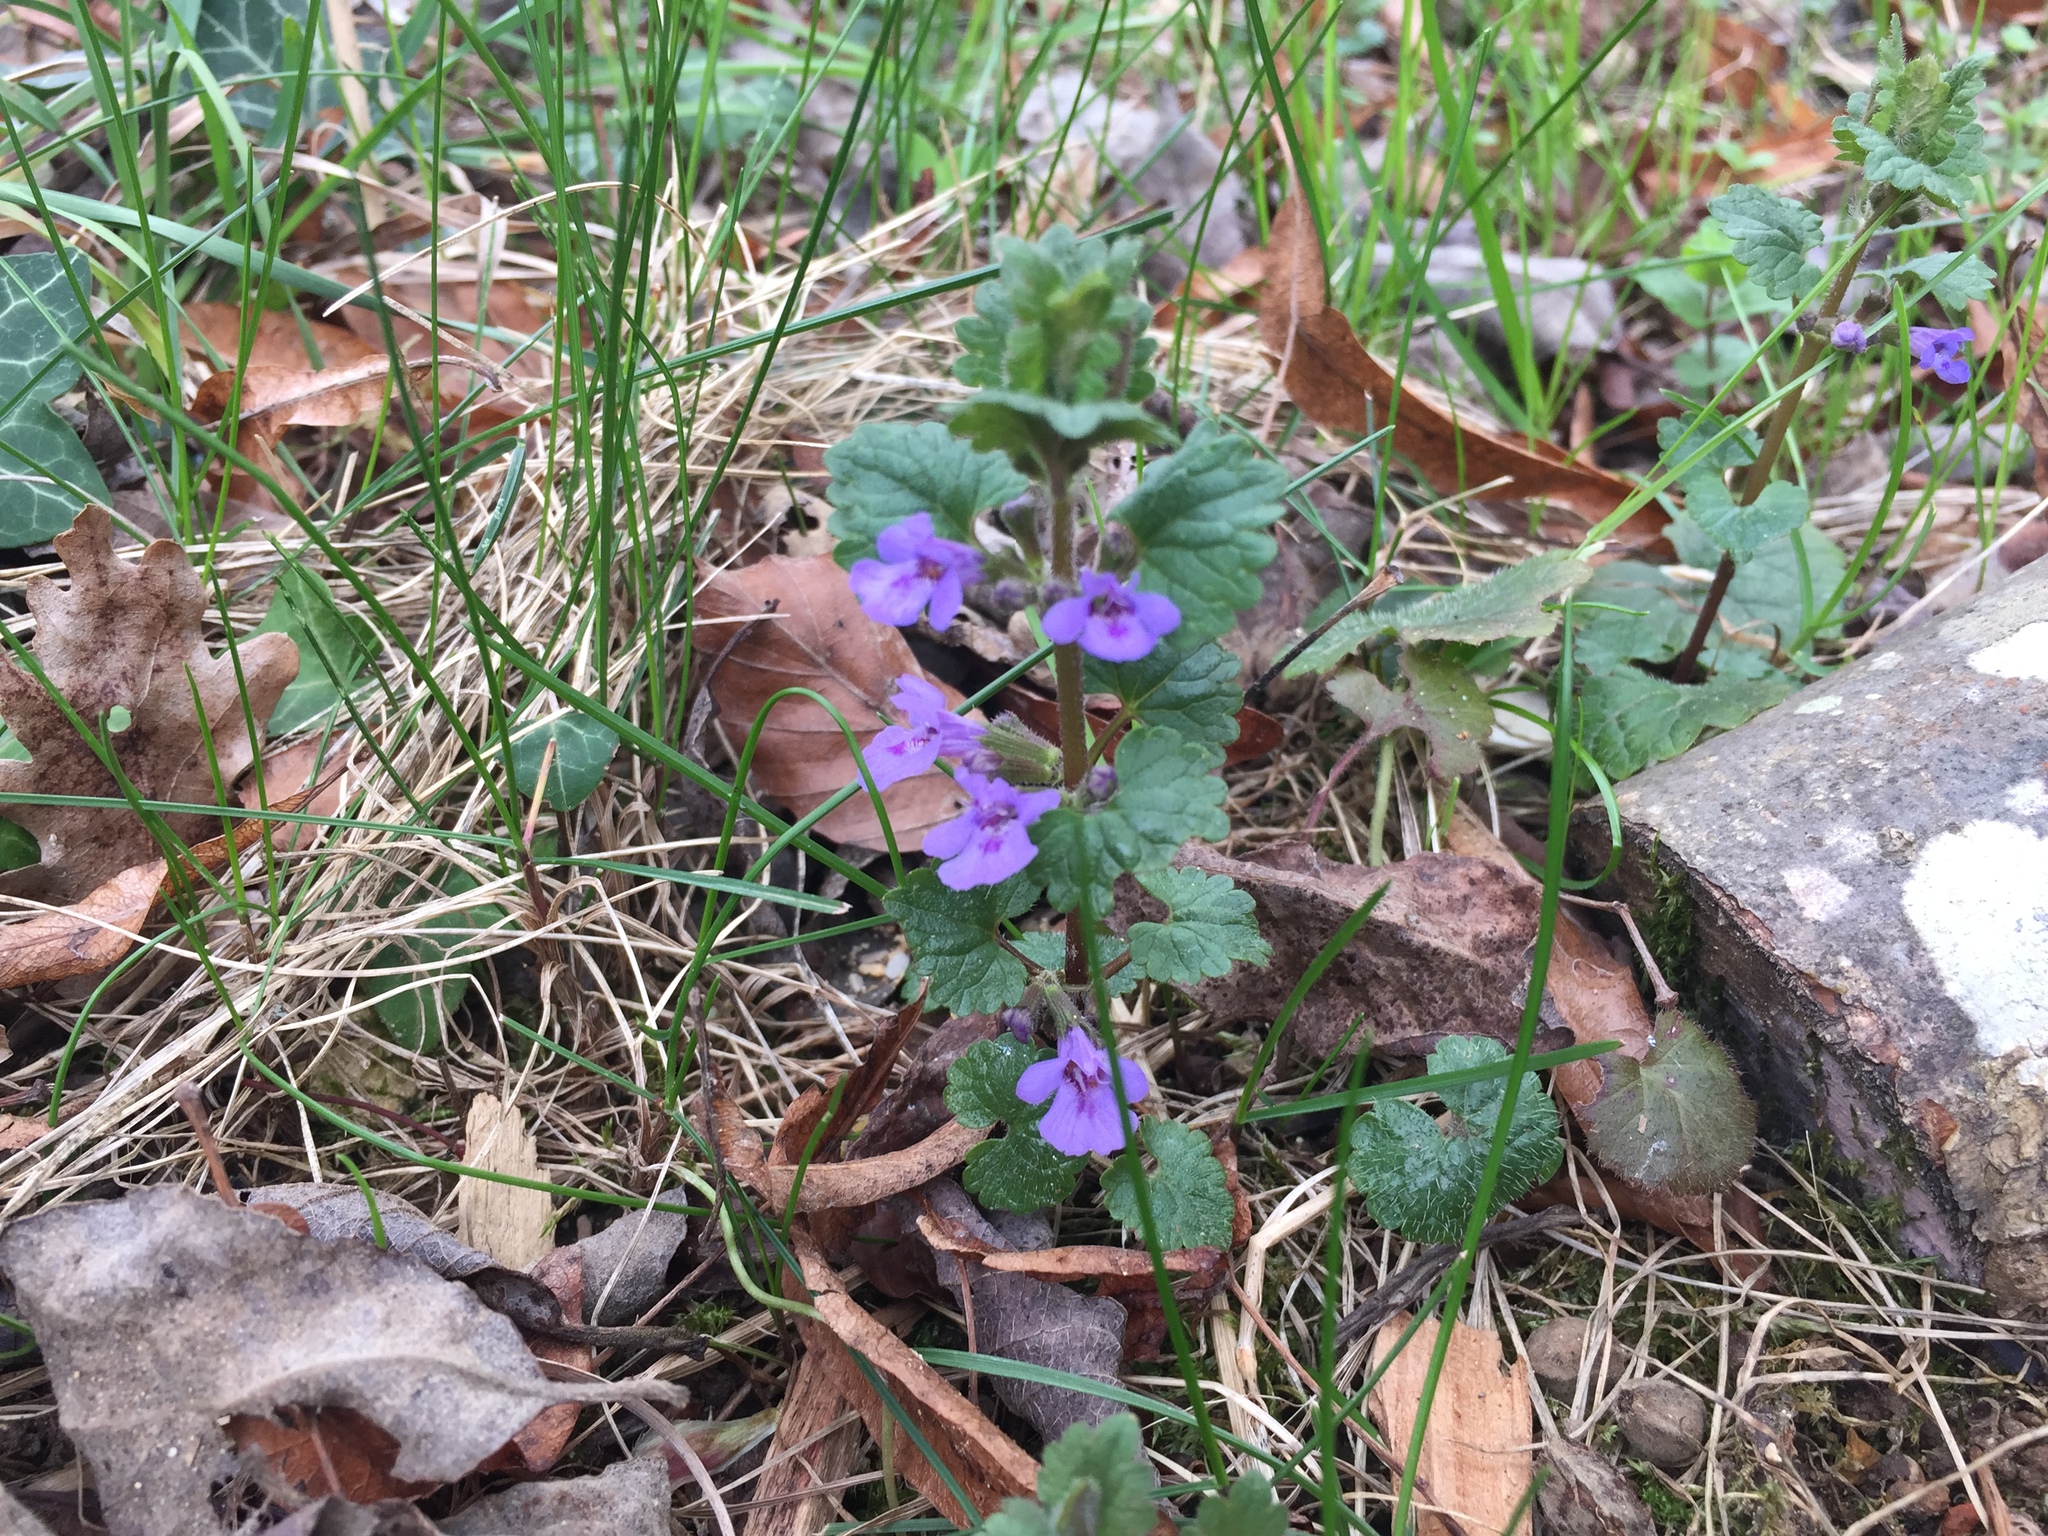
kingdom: Plantae
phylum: Tracheophyta
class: Magnoliopsida
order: Lamiales
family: Lamiaceae
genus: Glechoma
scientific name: Glechoma hederacea
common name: Ground ivy
